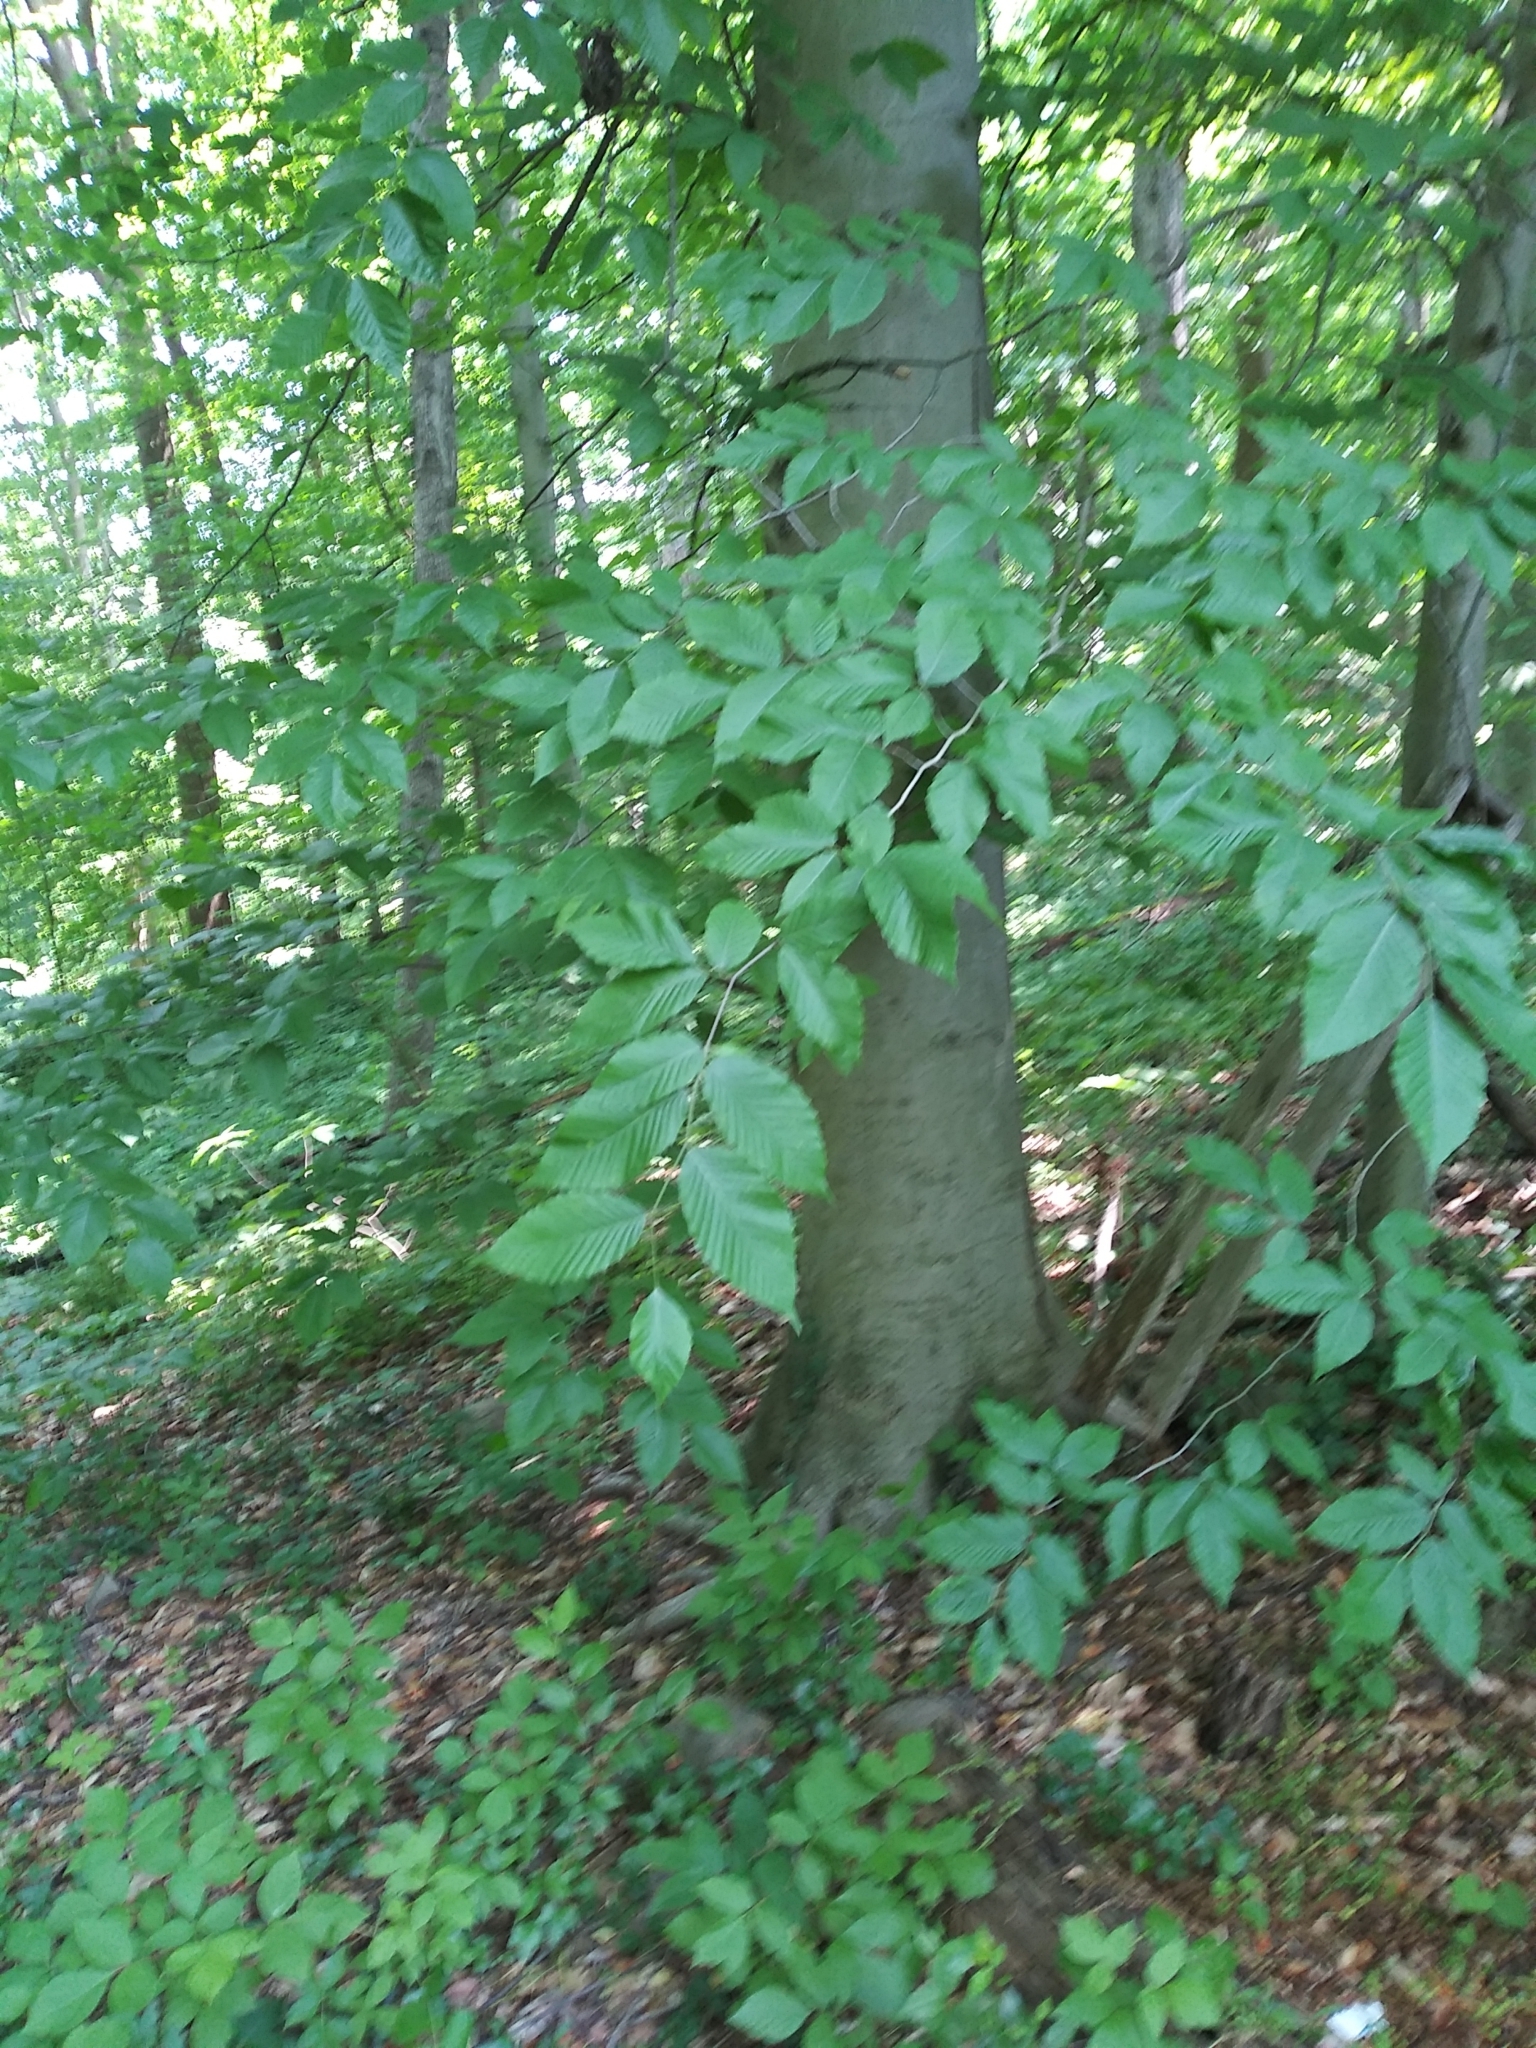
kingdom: Plantae
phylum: Tracheophyta
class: Magnoliopsida
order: Fagales
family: Fagaceae
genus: Fagus
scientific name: Fagus grandifolia
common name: American beech
